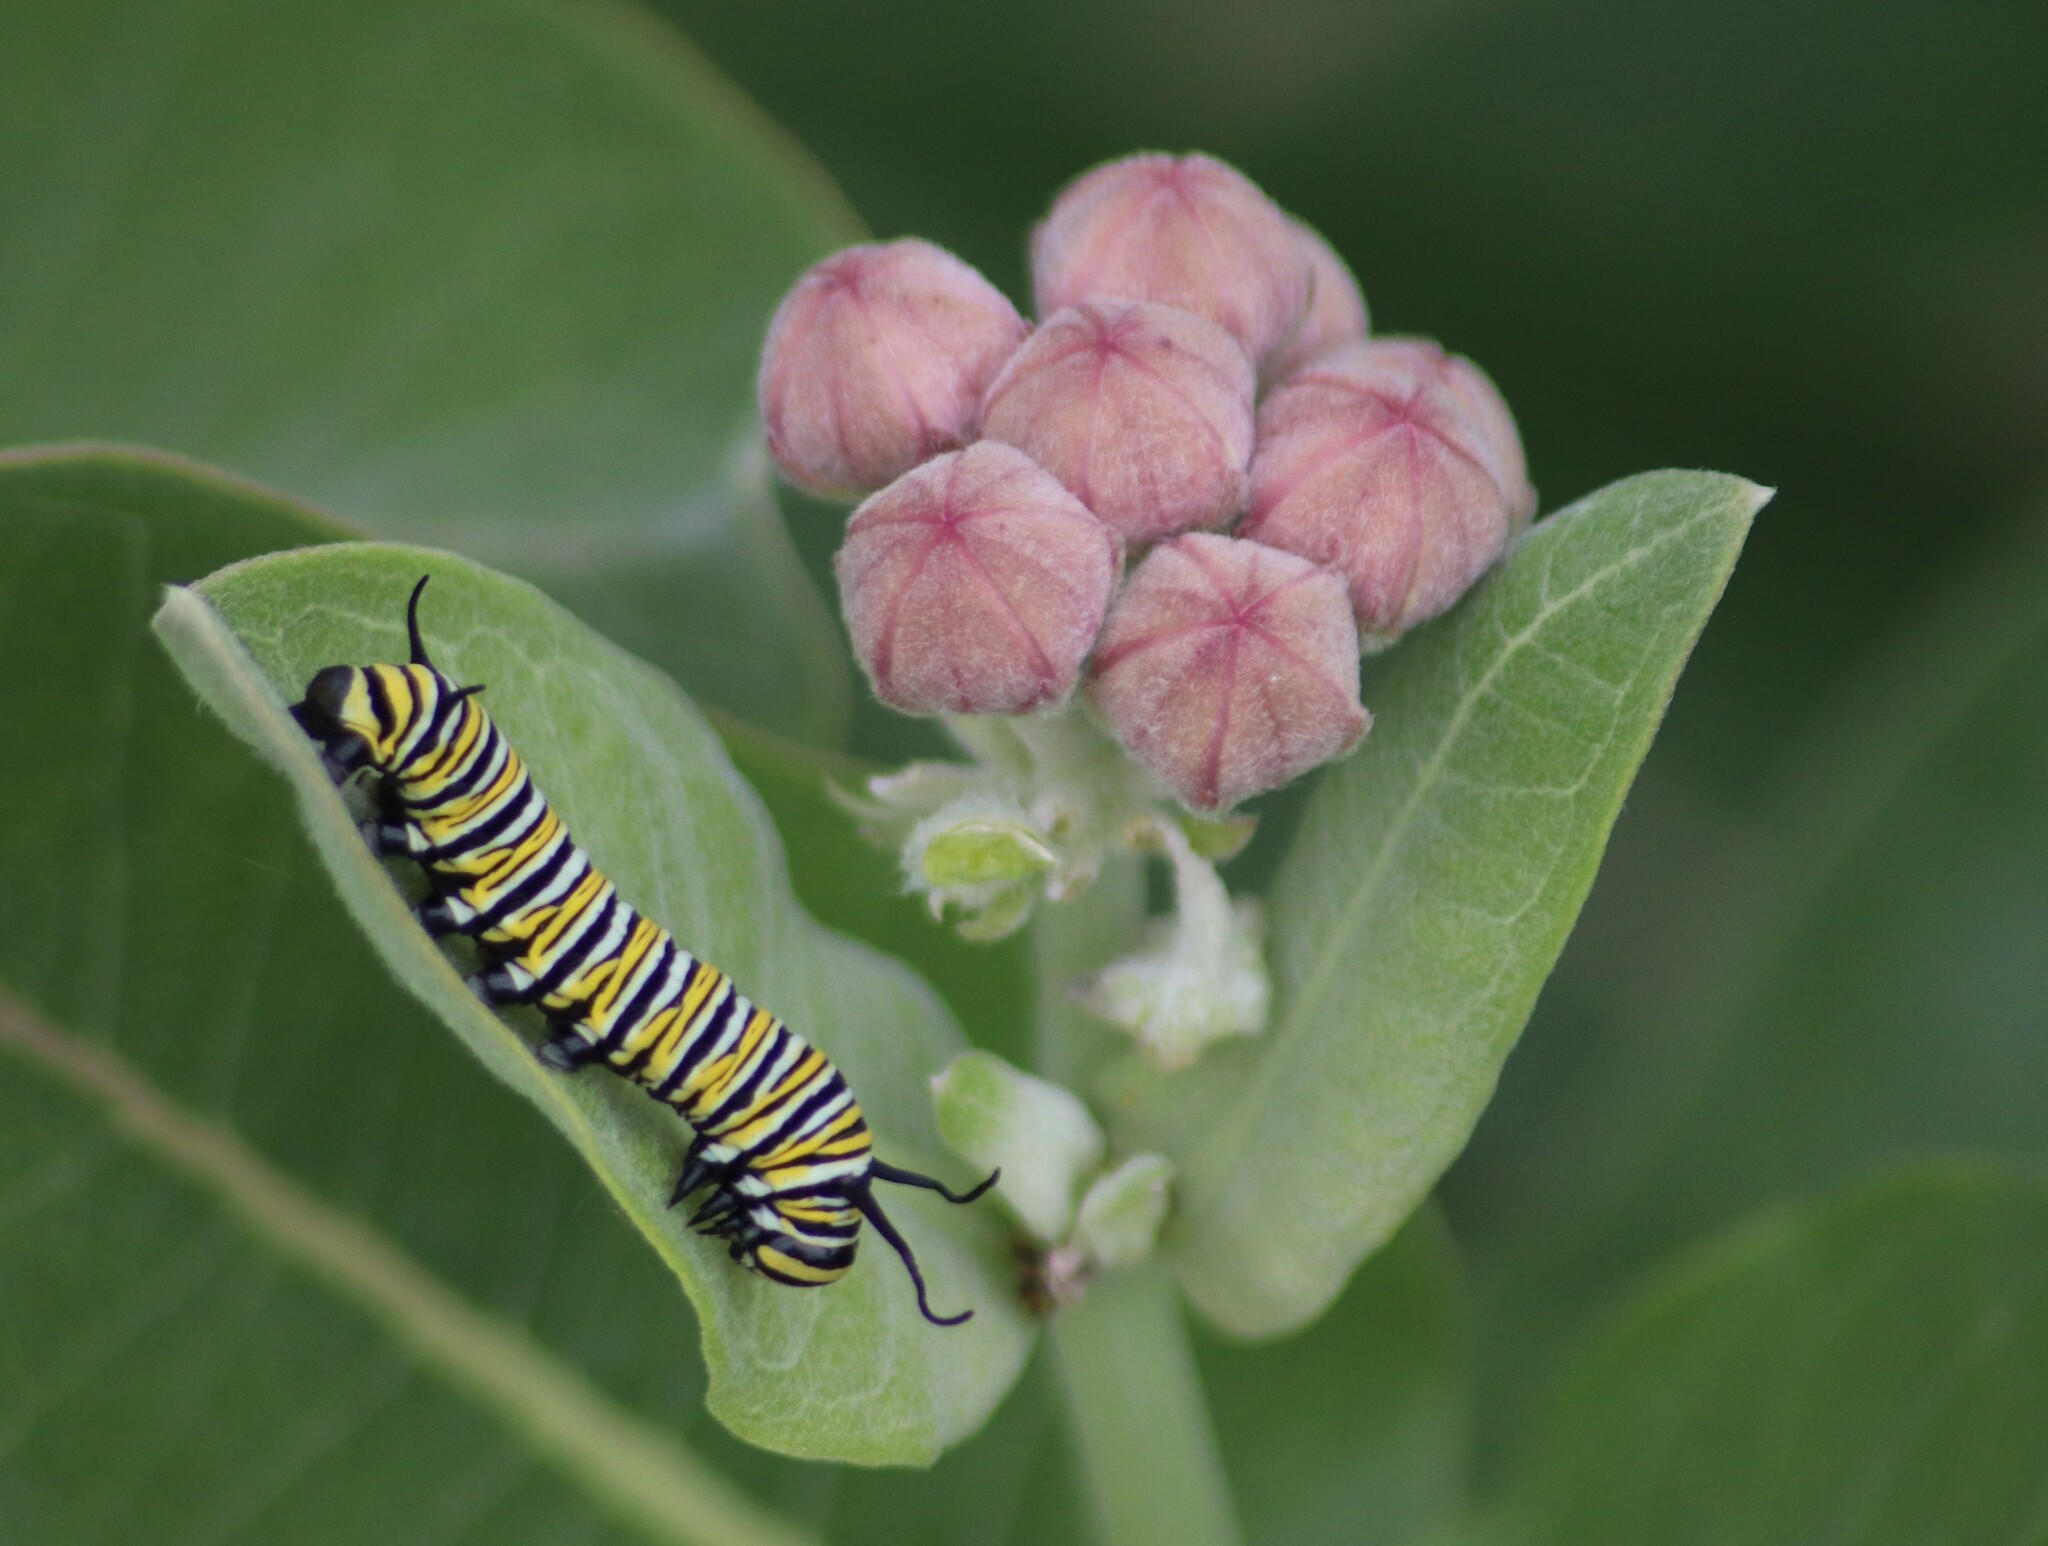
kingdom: Animalia
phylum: Arthropoda
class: Insecta
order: Lepidoptera
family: Nymphalidae
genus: Danaus
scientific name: Danaus plexippus
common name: Monarch
